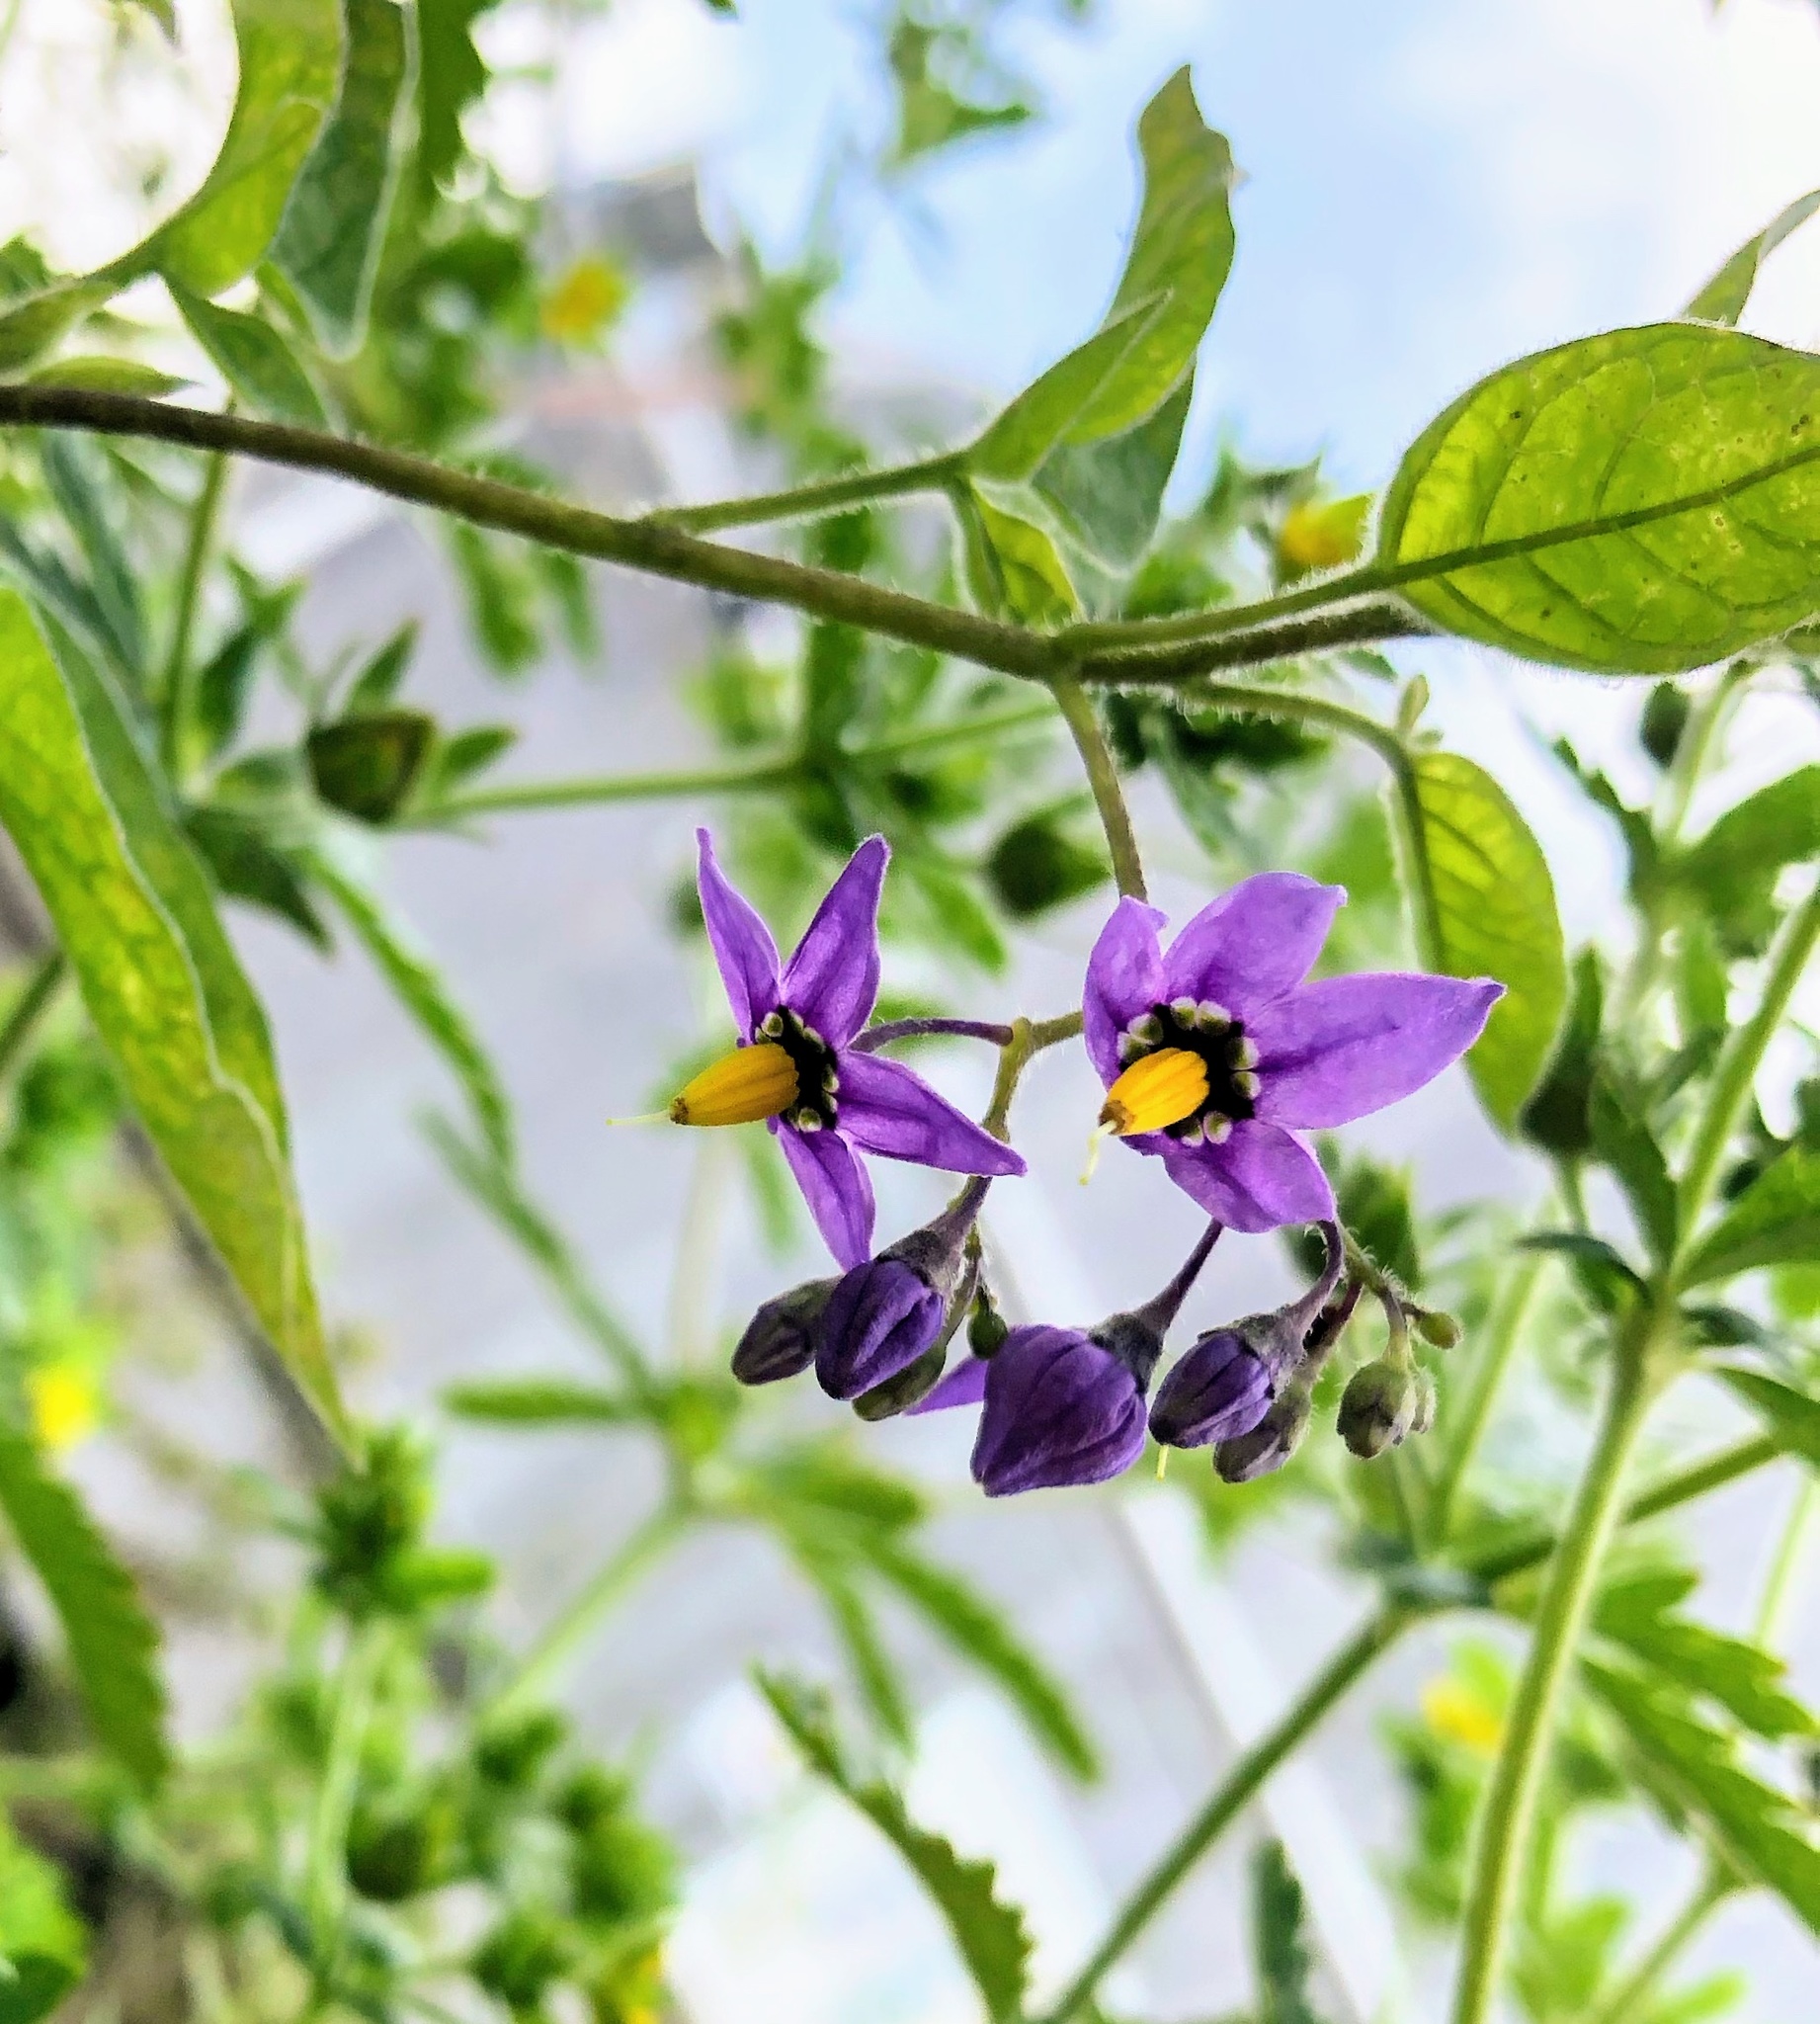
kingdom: Plantae
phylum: Tracheophyta
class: Magnoliopsida
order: Solanales
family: Solanaceae
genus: Solanum
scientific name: Solanum dulcamara
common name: Climbing nightshade
